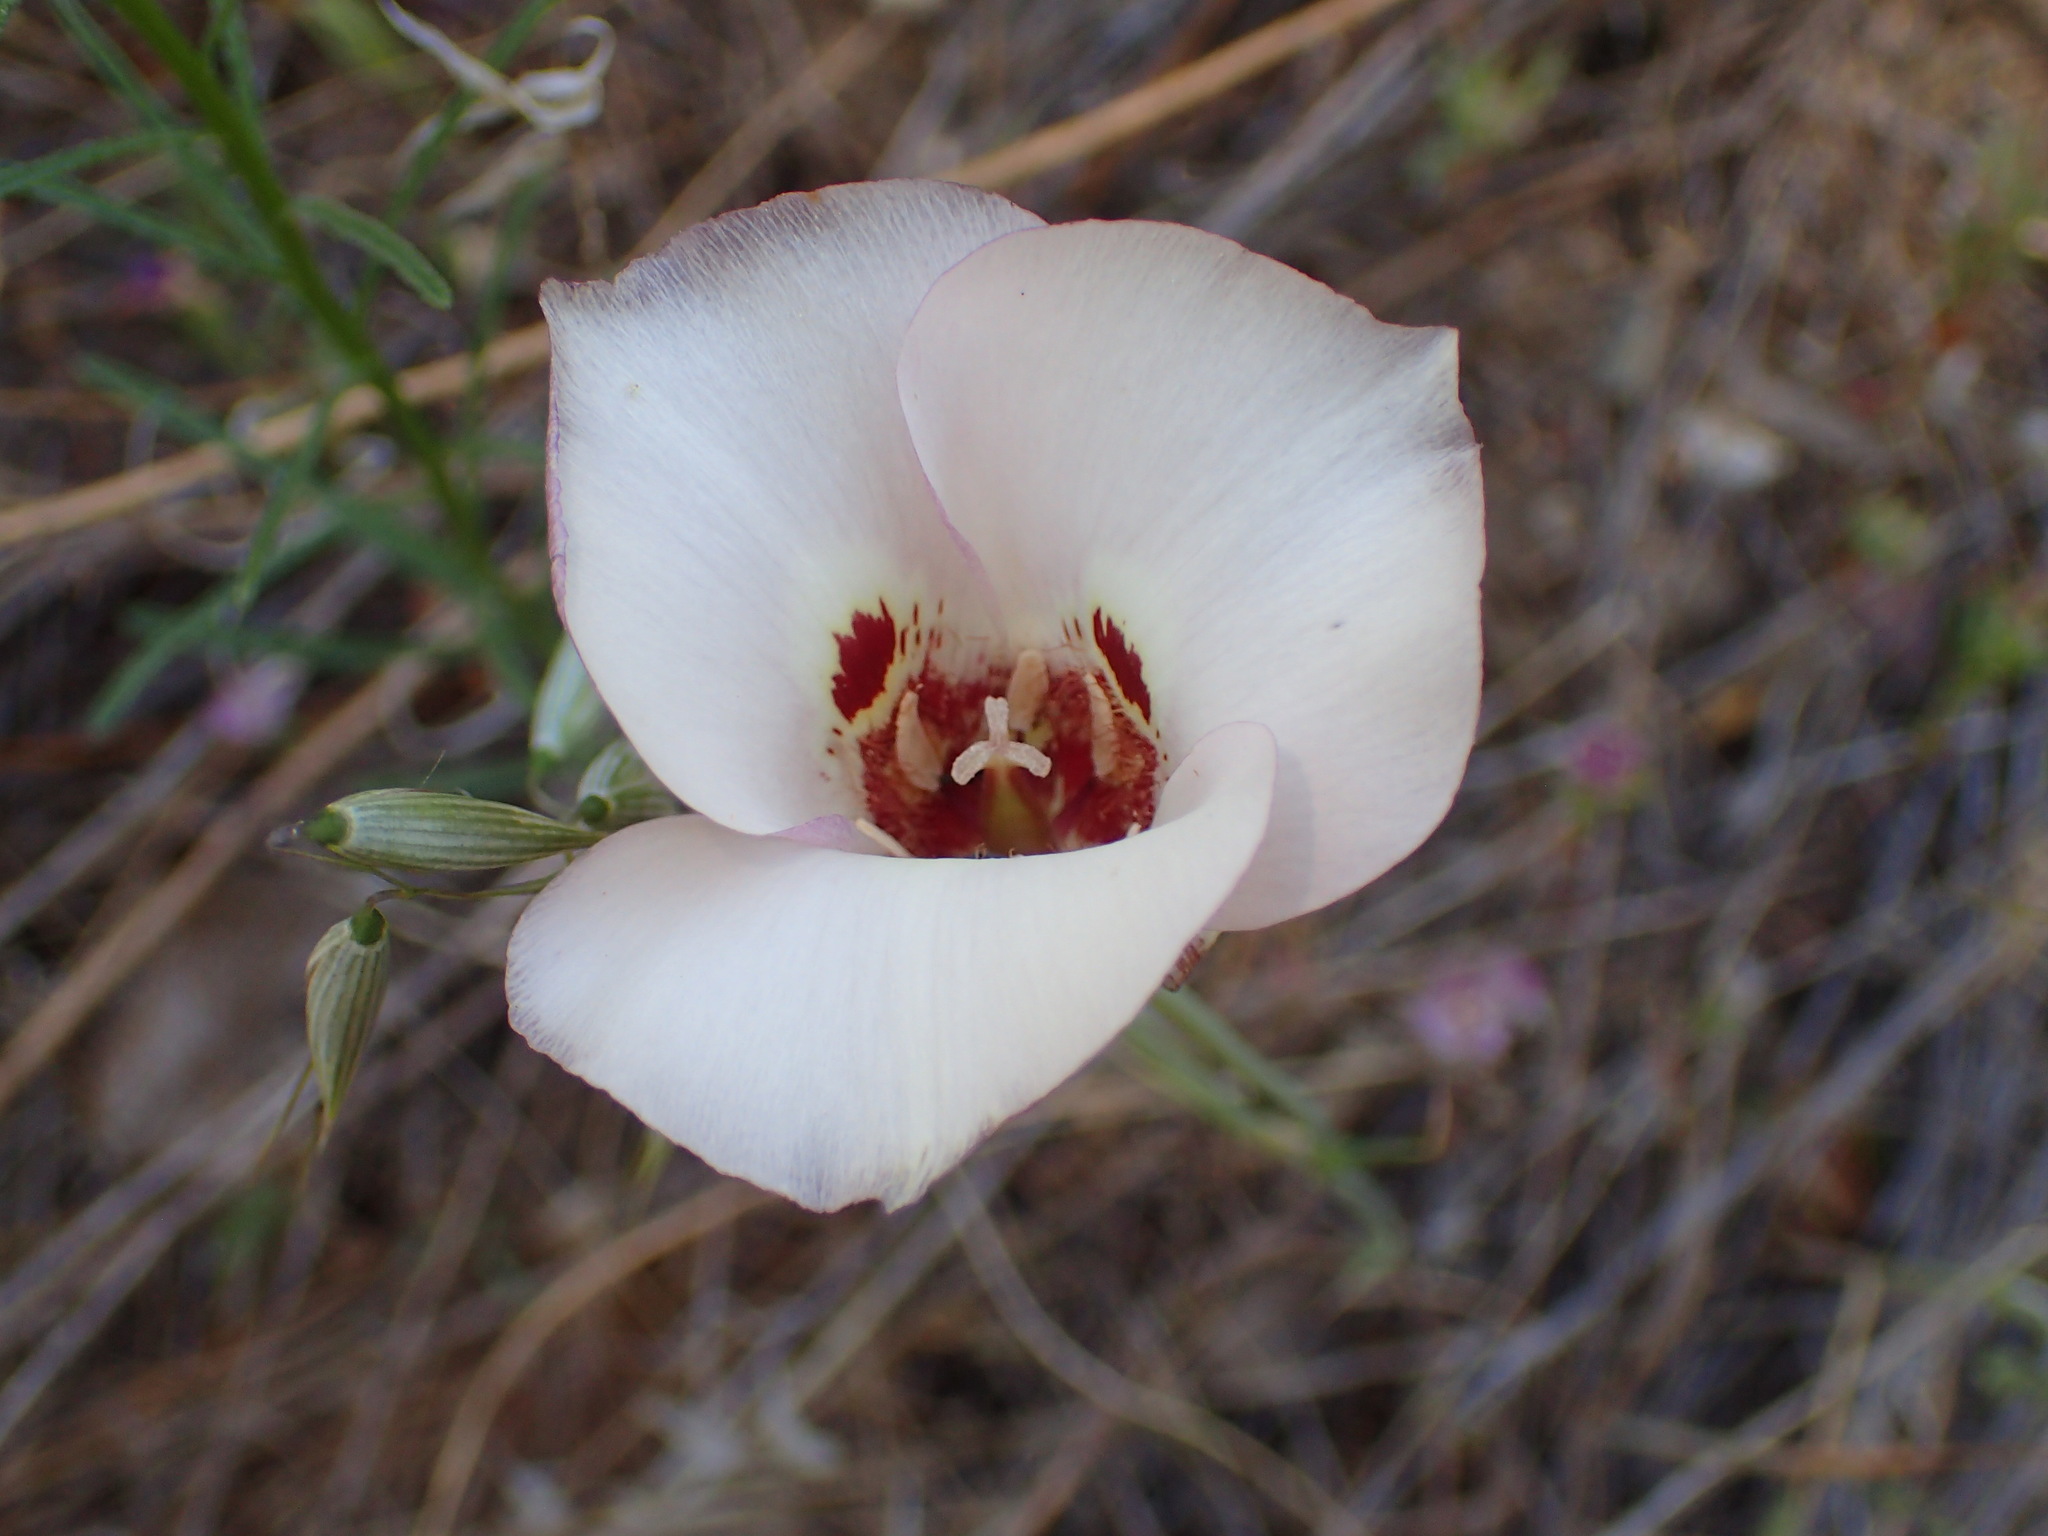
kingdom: Plantae
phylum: Tracheophyta
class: Liliopsida
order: Liliales
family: Liliaceae
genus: Calochortus
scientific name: Calochortus venustus
